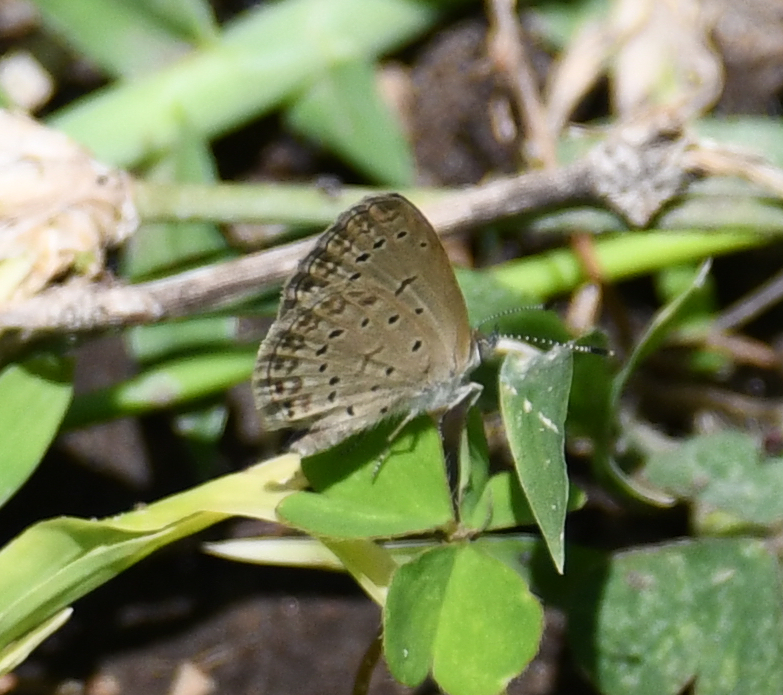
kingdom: Animalia
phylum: Arthropoda
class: Insecta
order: Lepidoptera
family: Lycaenidae
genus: Zizeeria
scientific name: Zizeeria knysna
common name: African grass blue
